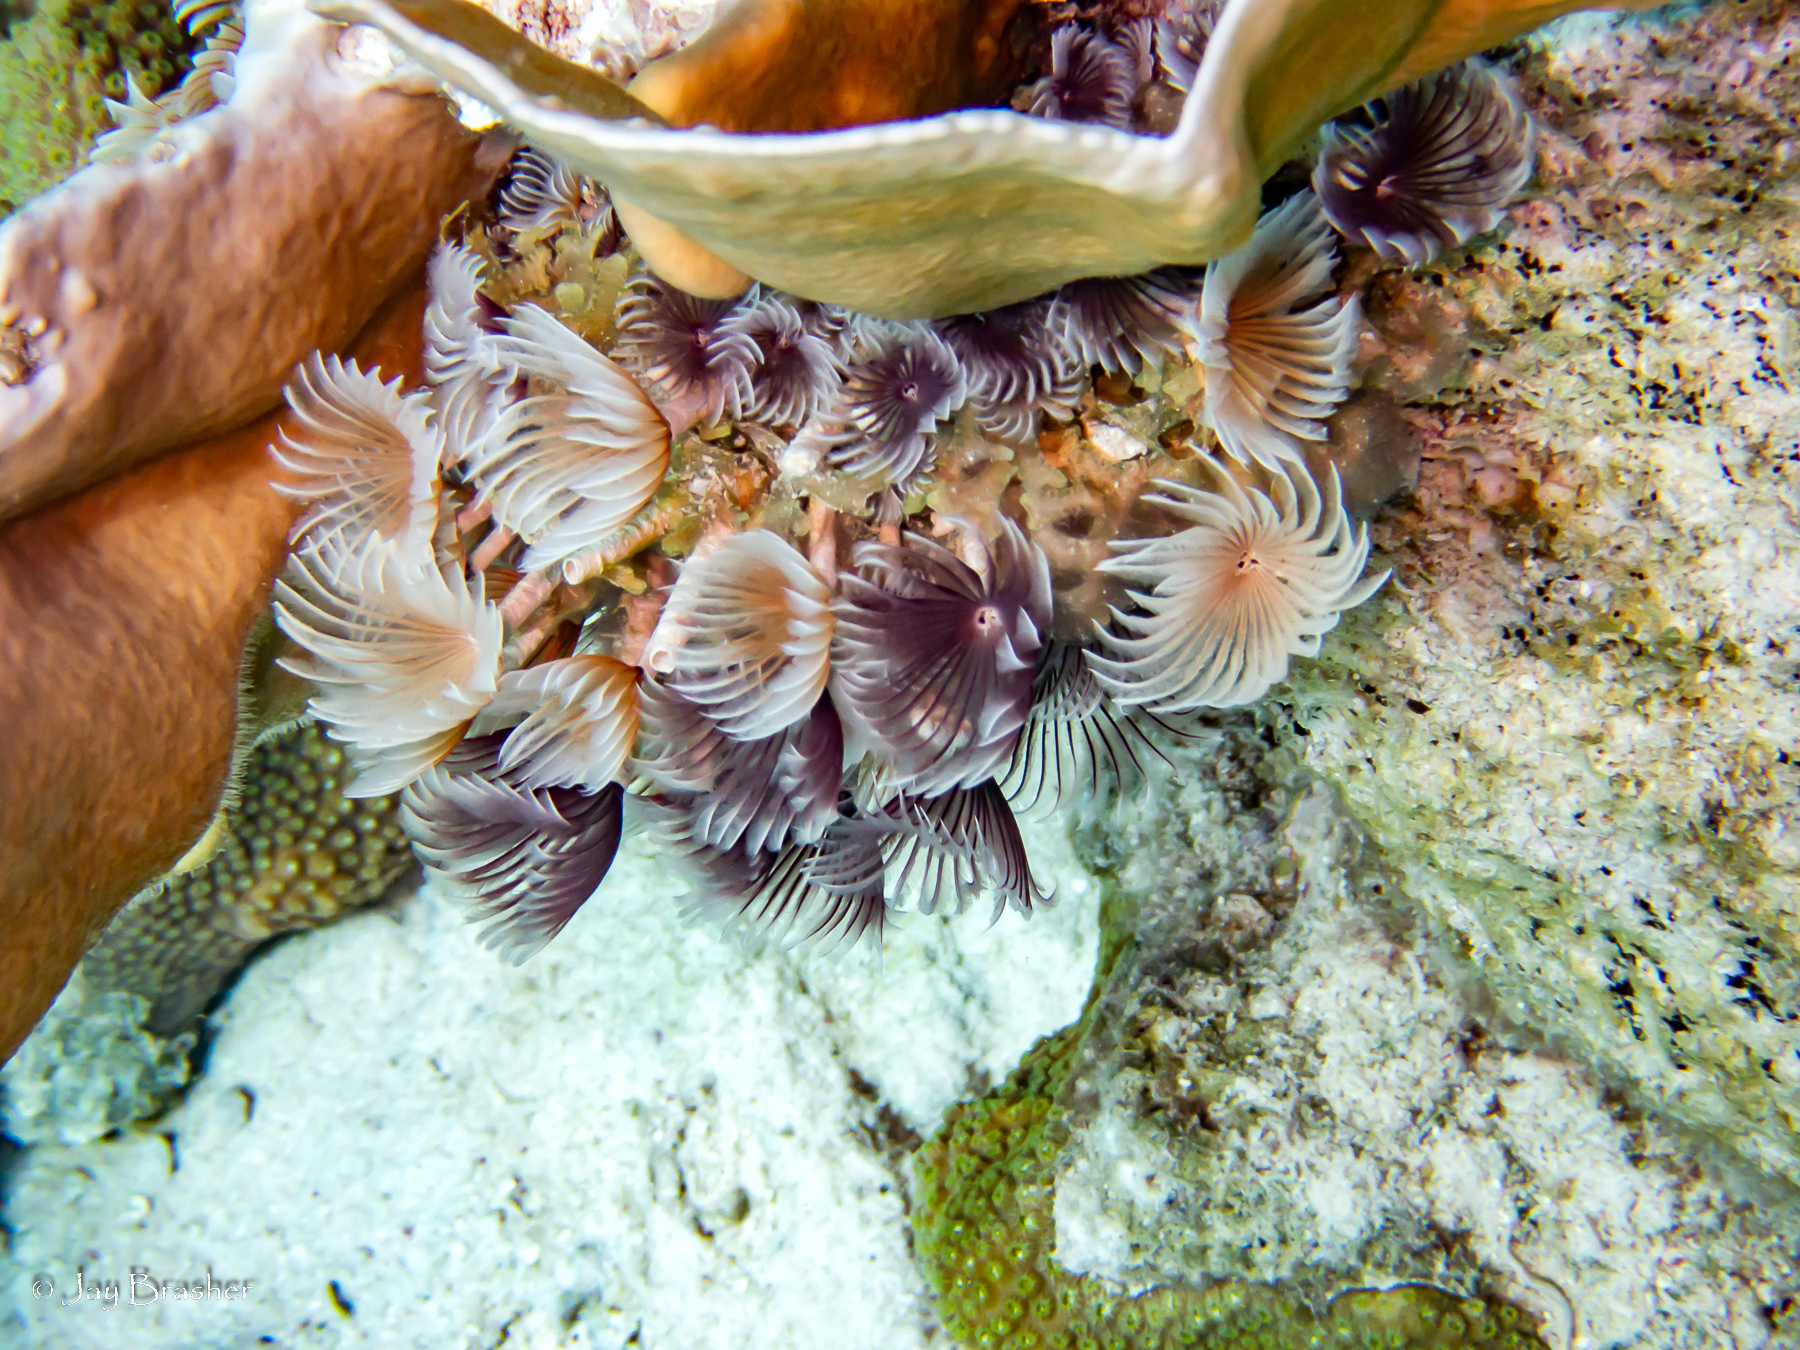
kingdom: Animalia
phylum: Annelida
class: Polychaeta
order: Sabellida
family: Sabellidae
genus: Bispira
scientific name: Bispira brunnea
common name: Social feather duster
